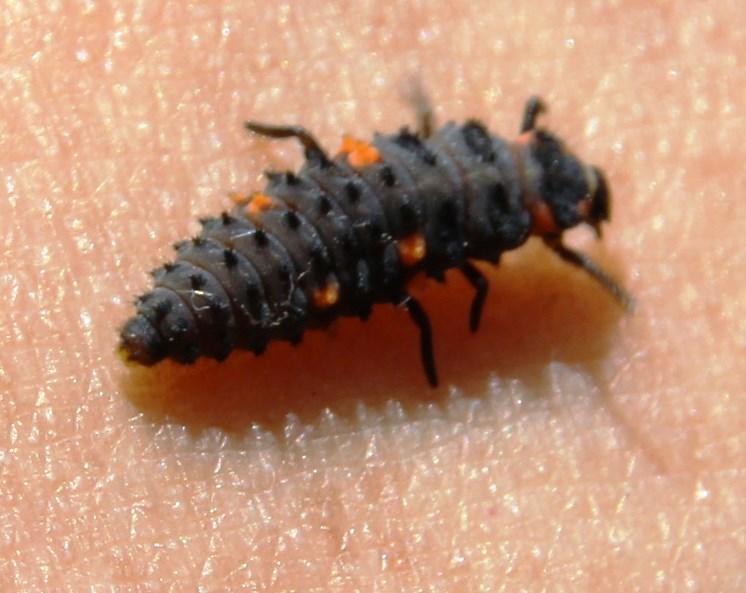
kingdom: Animalia
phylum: Arthropoda
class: Insecta
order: Coleoptera
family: Coccinellidae
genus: Coccinella
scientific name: Coccinella septempunctata
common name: Sevenspotted lady beetle
